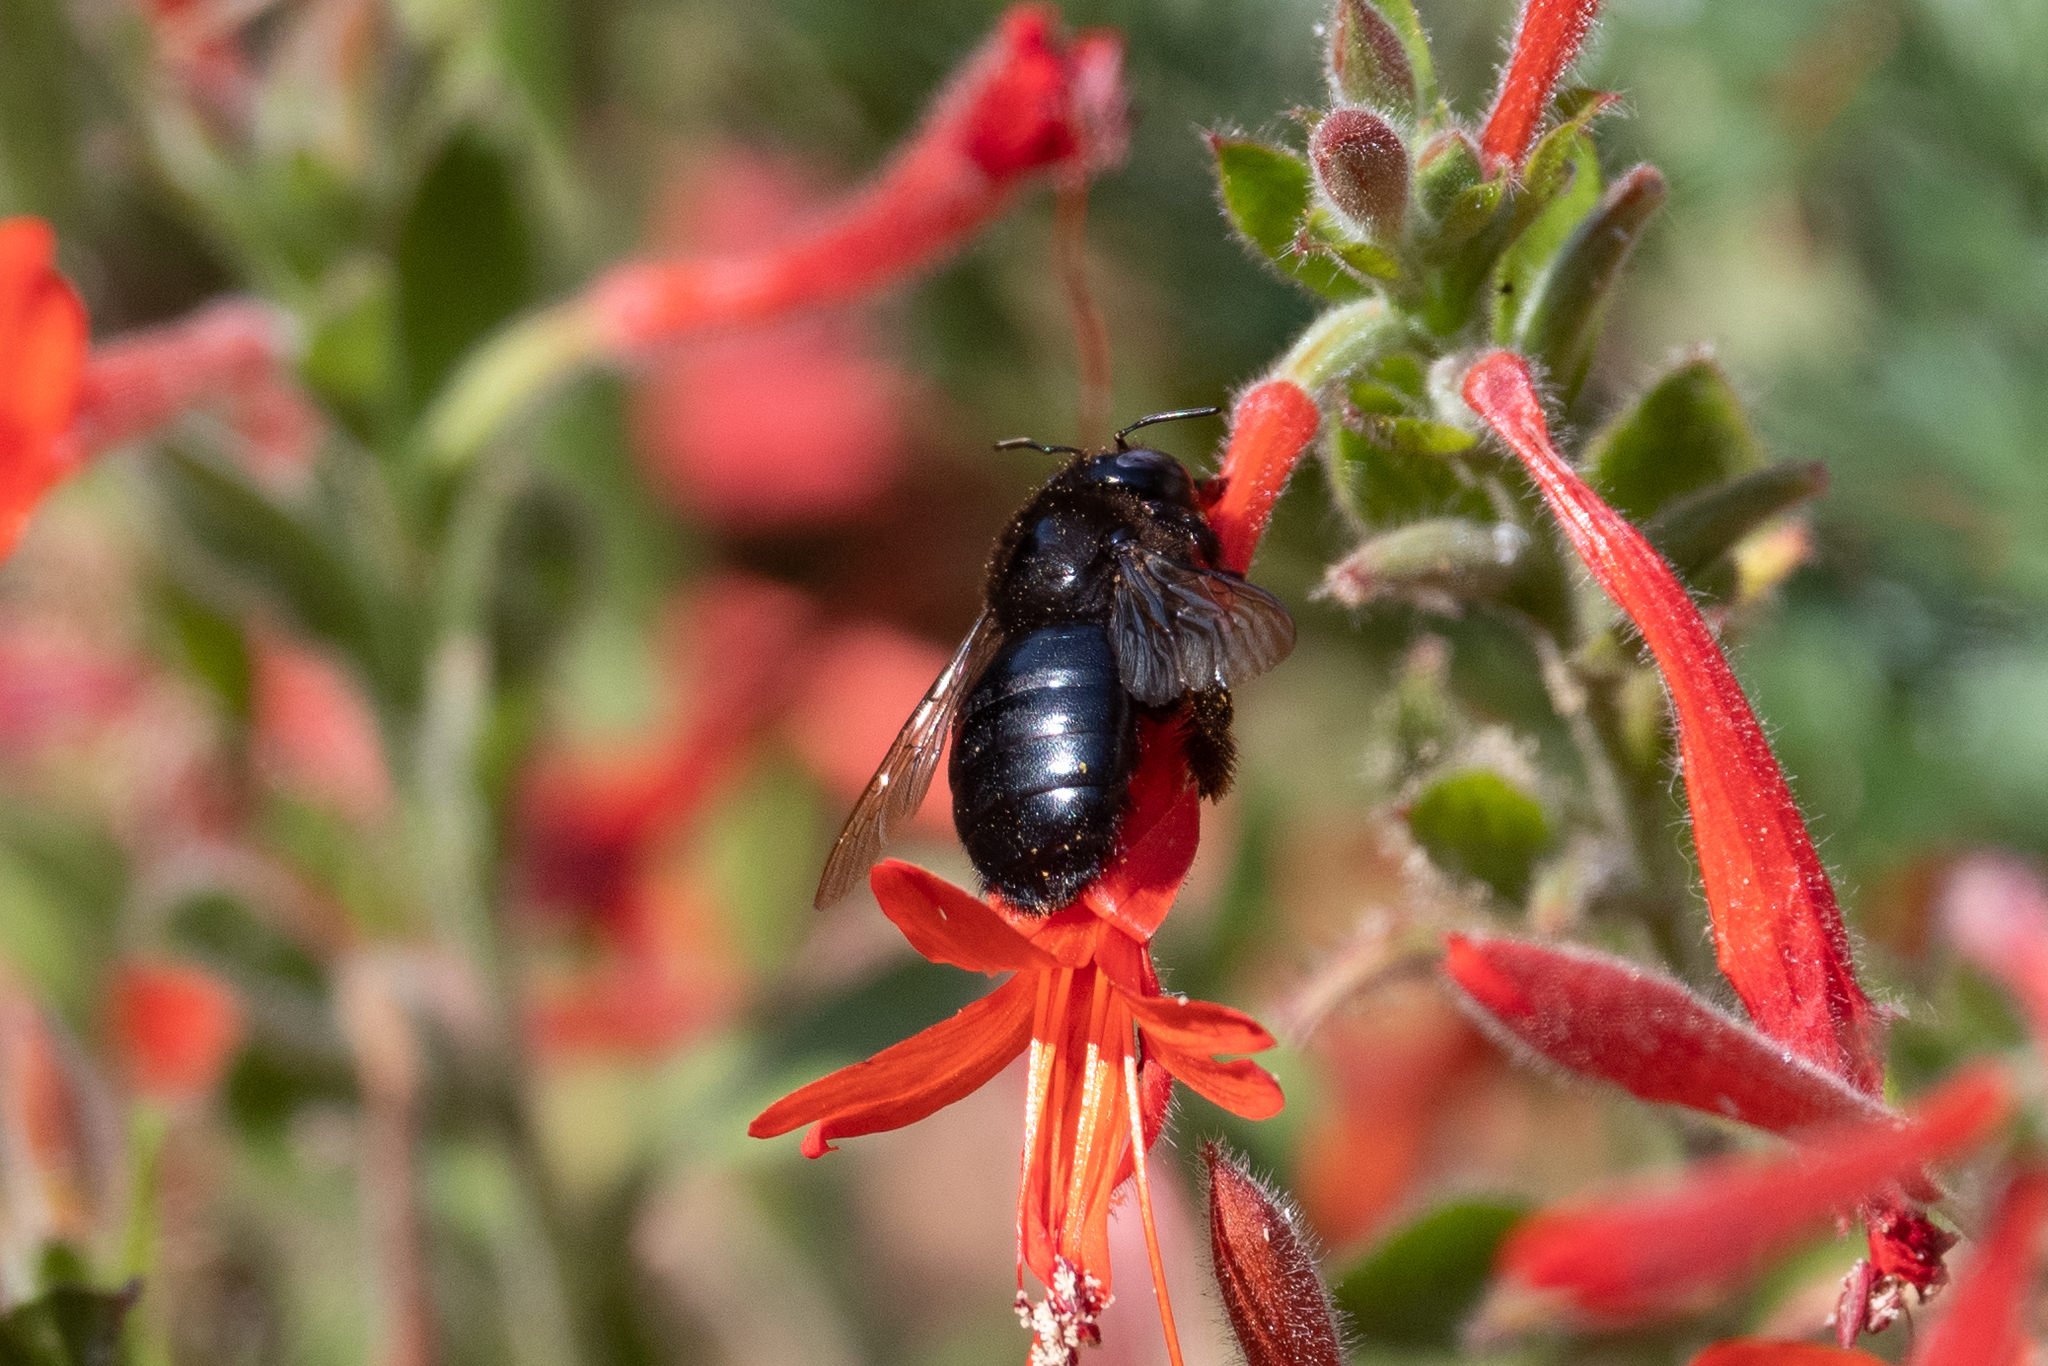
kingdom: Animalia
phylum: Arthropoda
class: Insecta
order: Hymenoptera
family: Apidae
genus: Xylocopa
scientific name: Xylocopa tabaniformis
